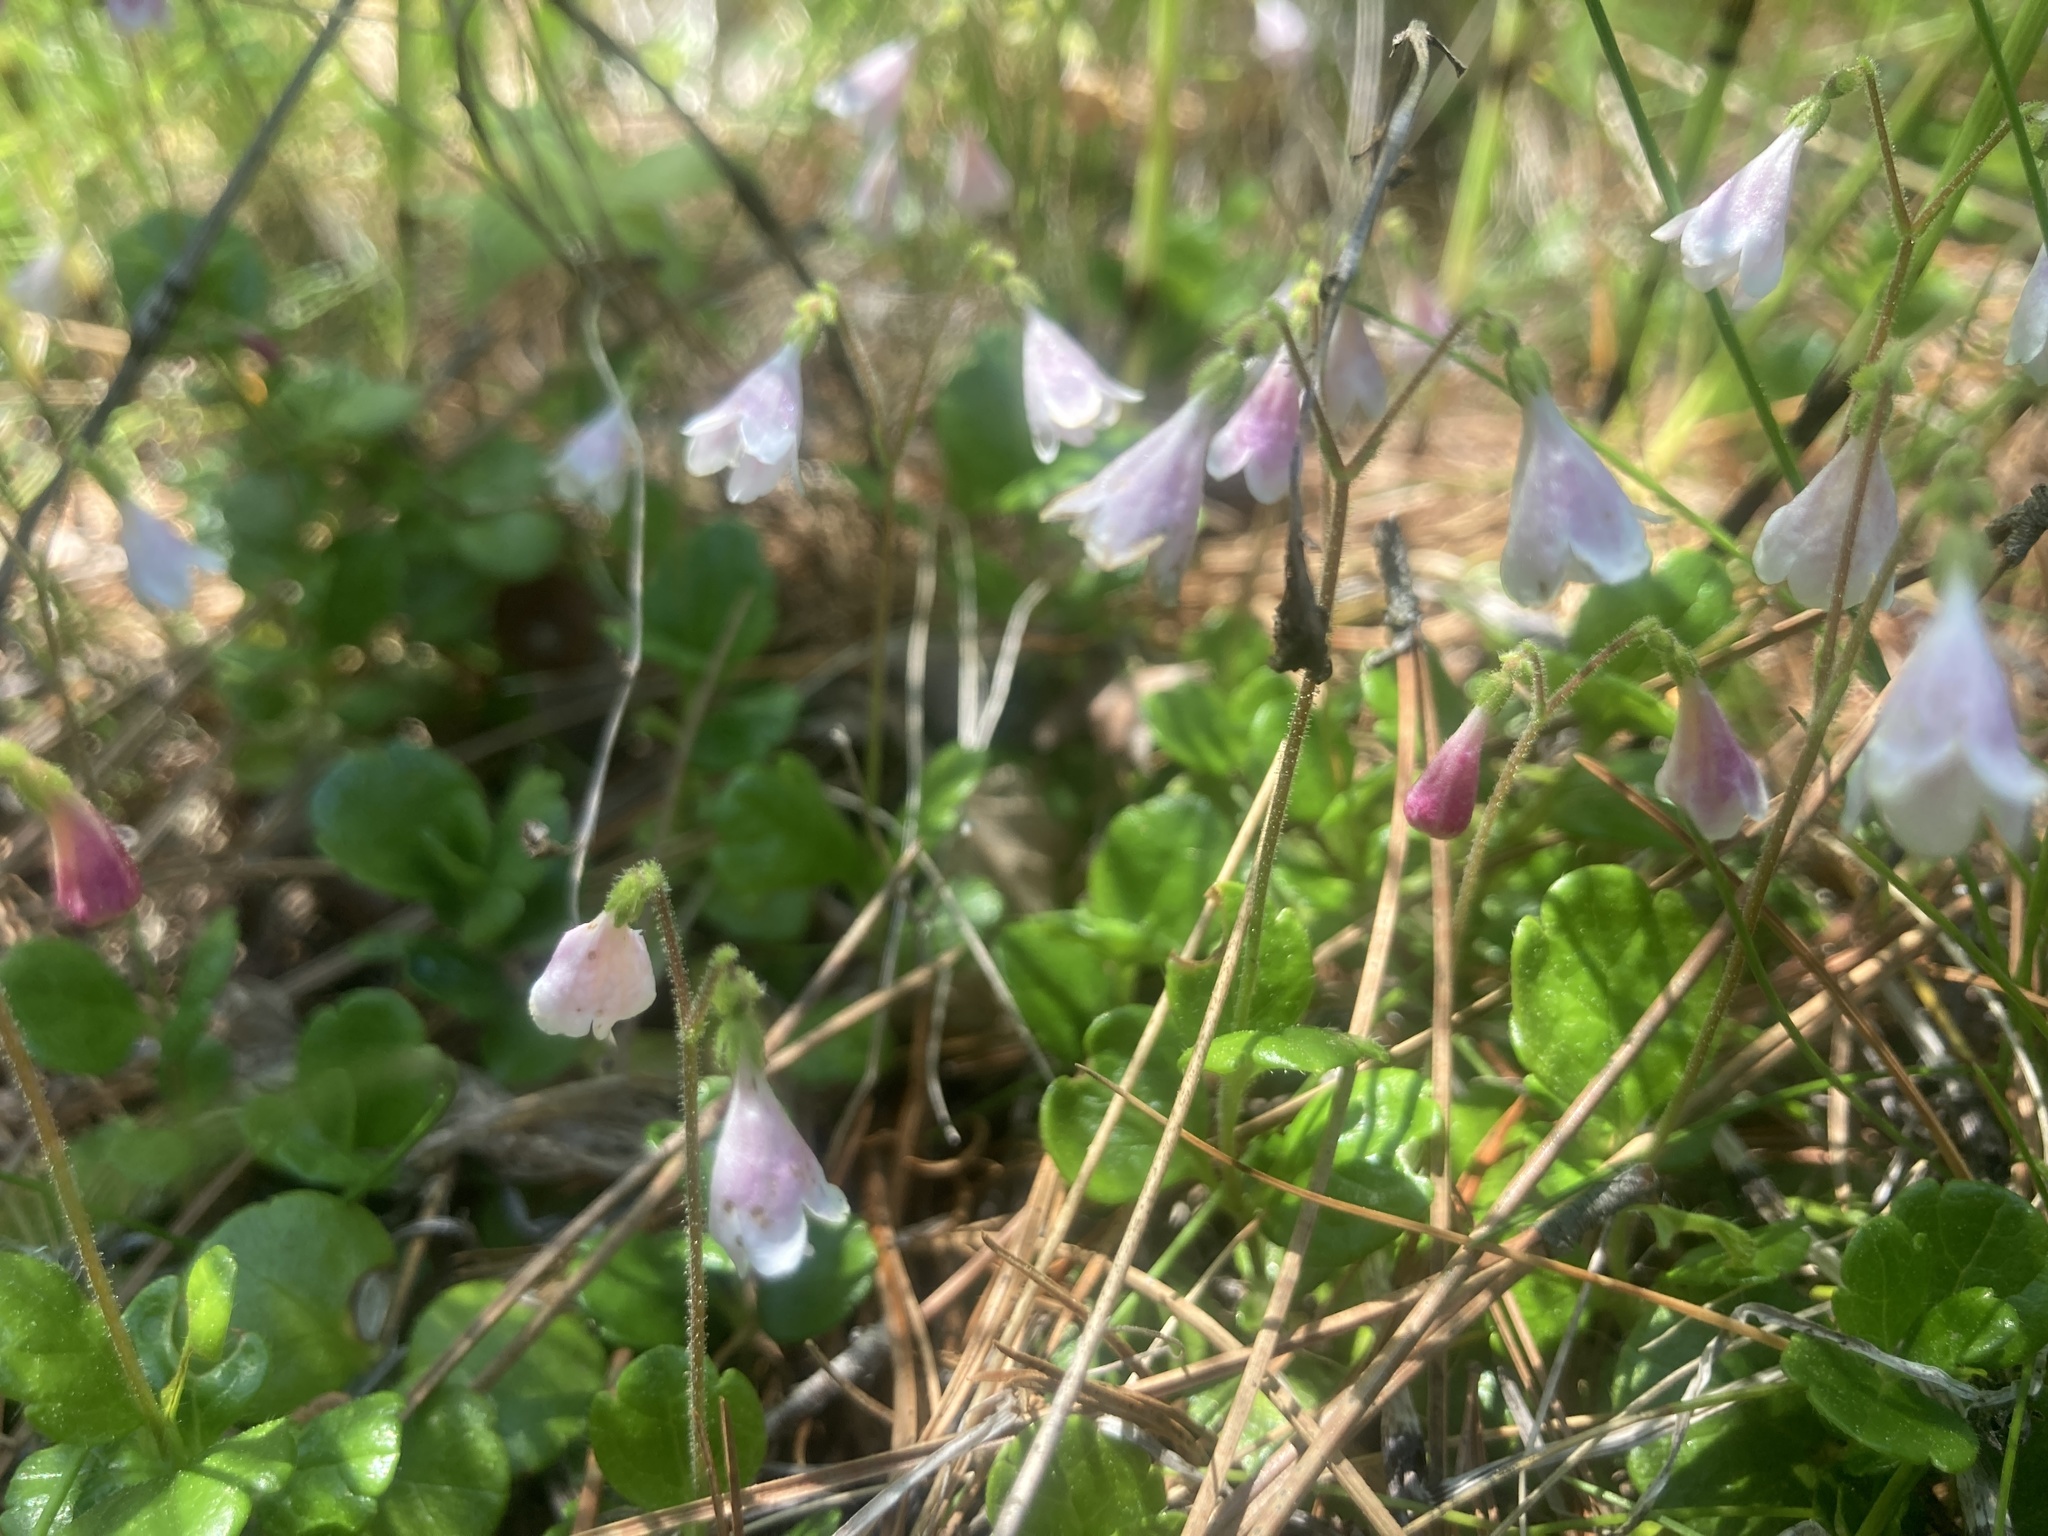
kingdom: Plantae
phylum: Tracheophyta
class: Magnoliopsida
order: Dipsacales
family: Caprifoliaceae
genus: Linnaea
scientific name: Linnaea borealis
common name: Twinflower
